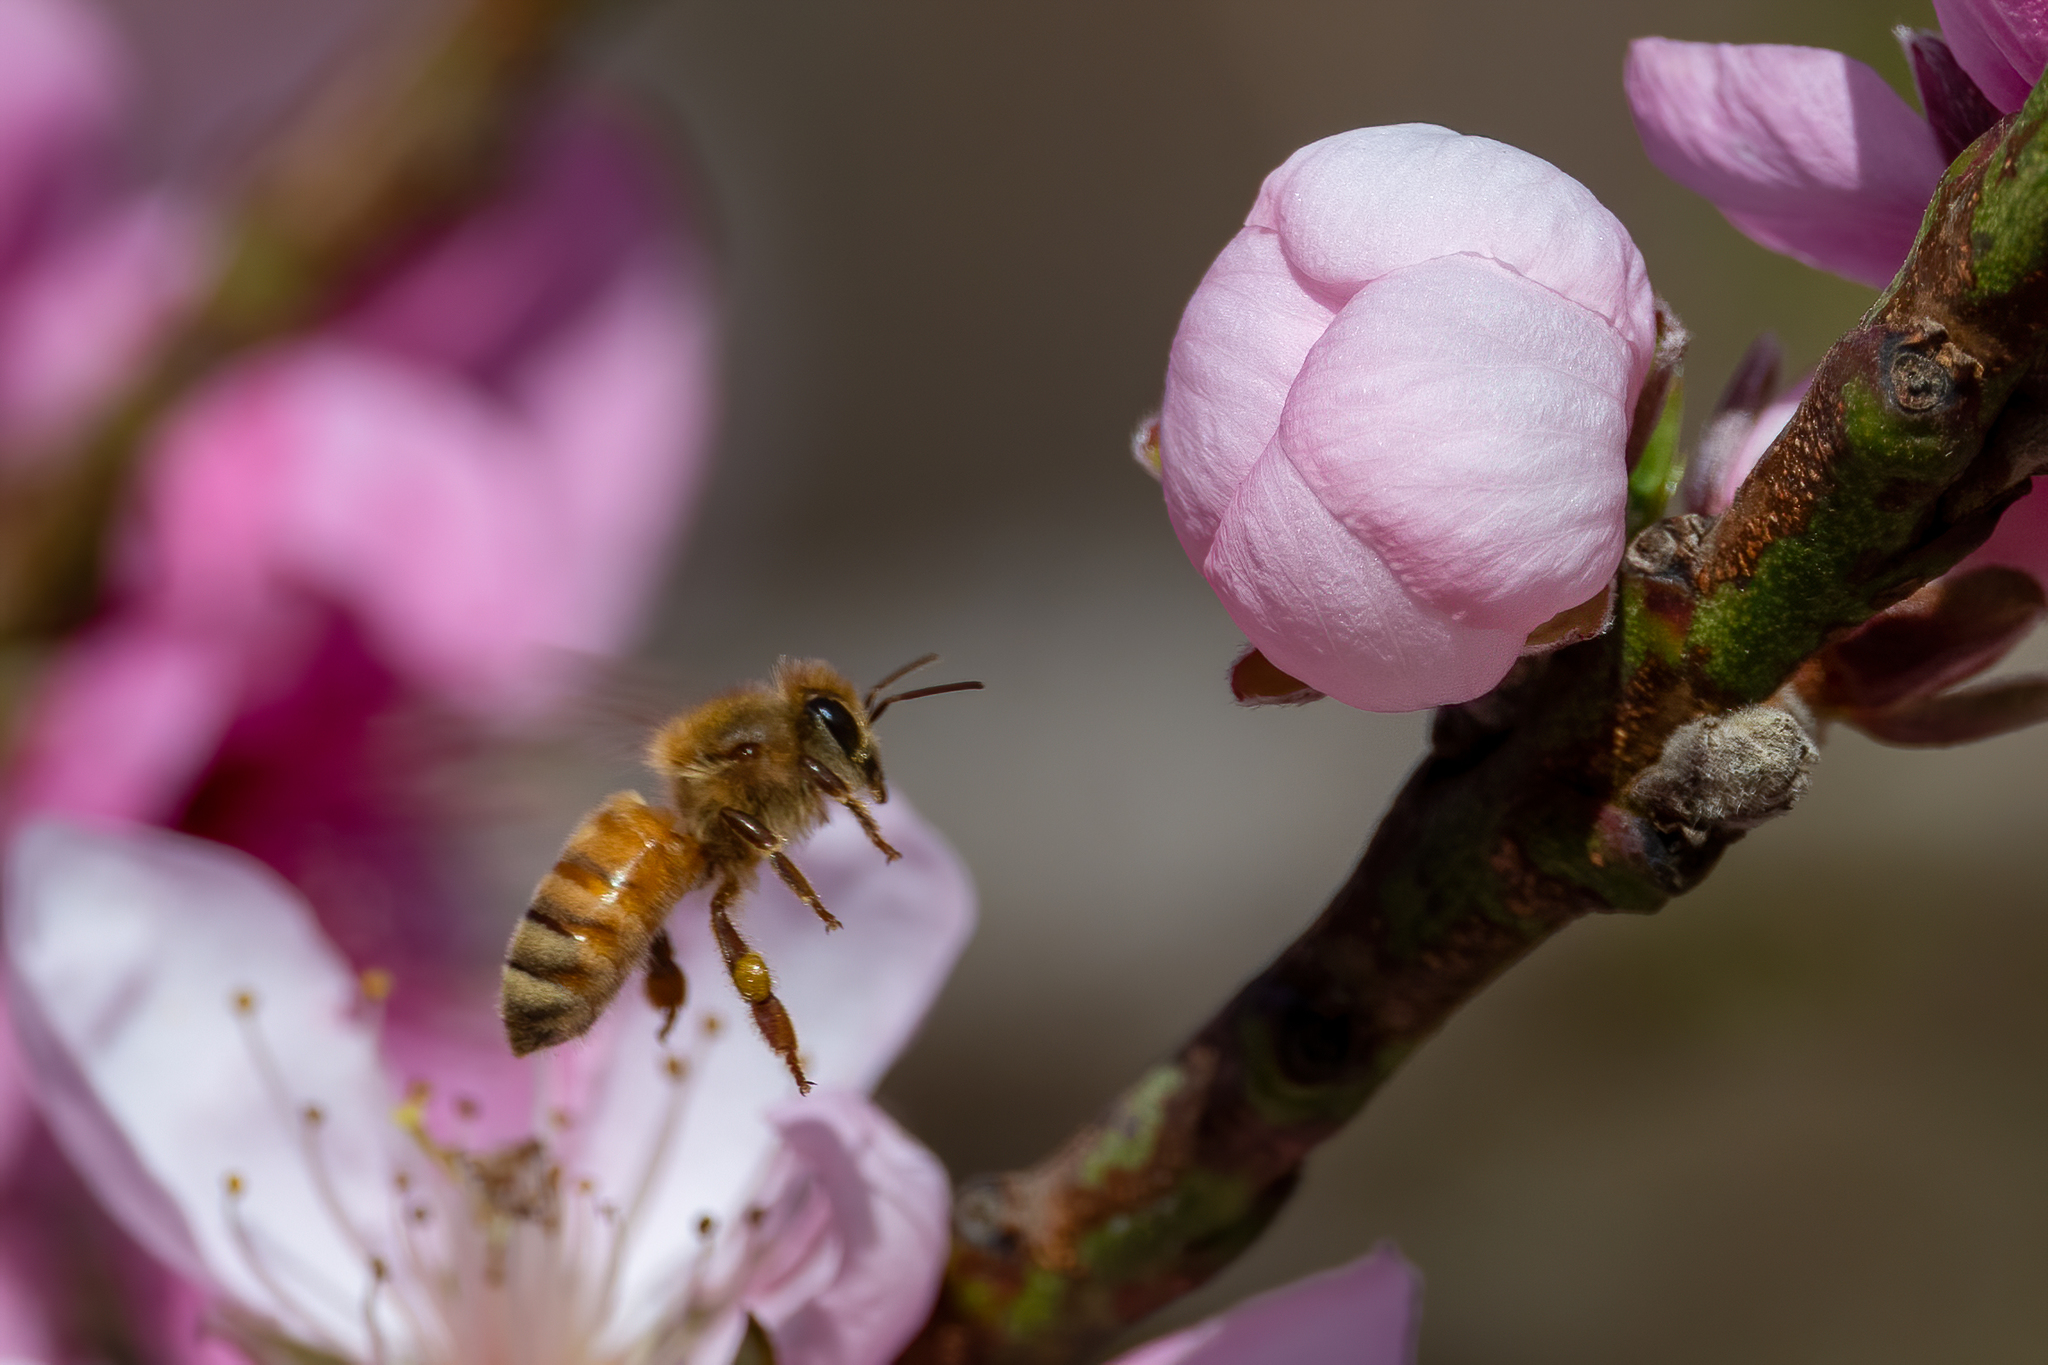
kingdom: Animalia
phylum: Arthropoda
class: Insecta
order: Hymenoptera
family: Apidae
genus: Apis
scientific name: Apis mellifera
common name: Honey bee
